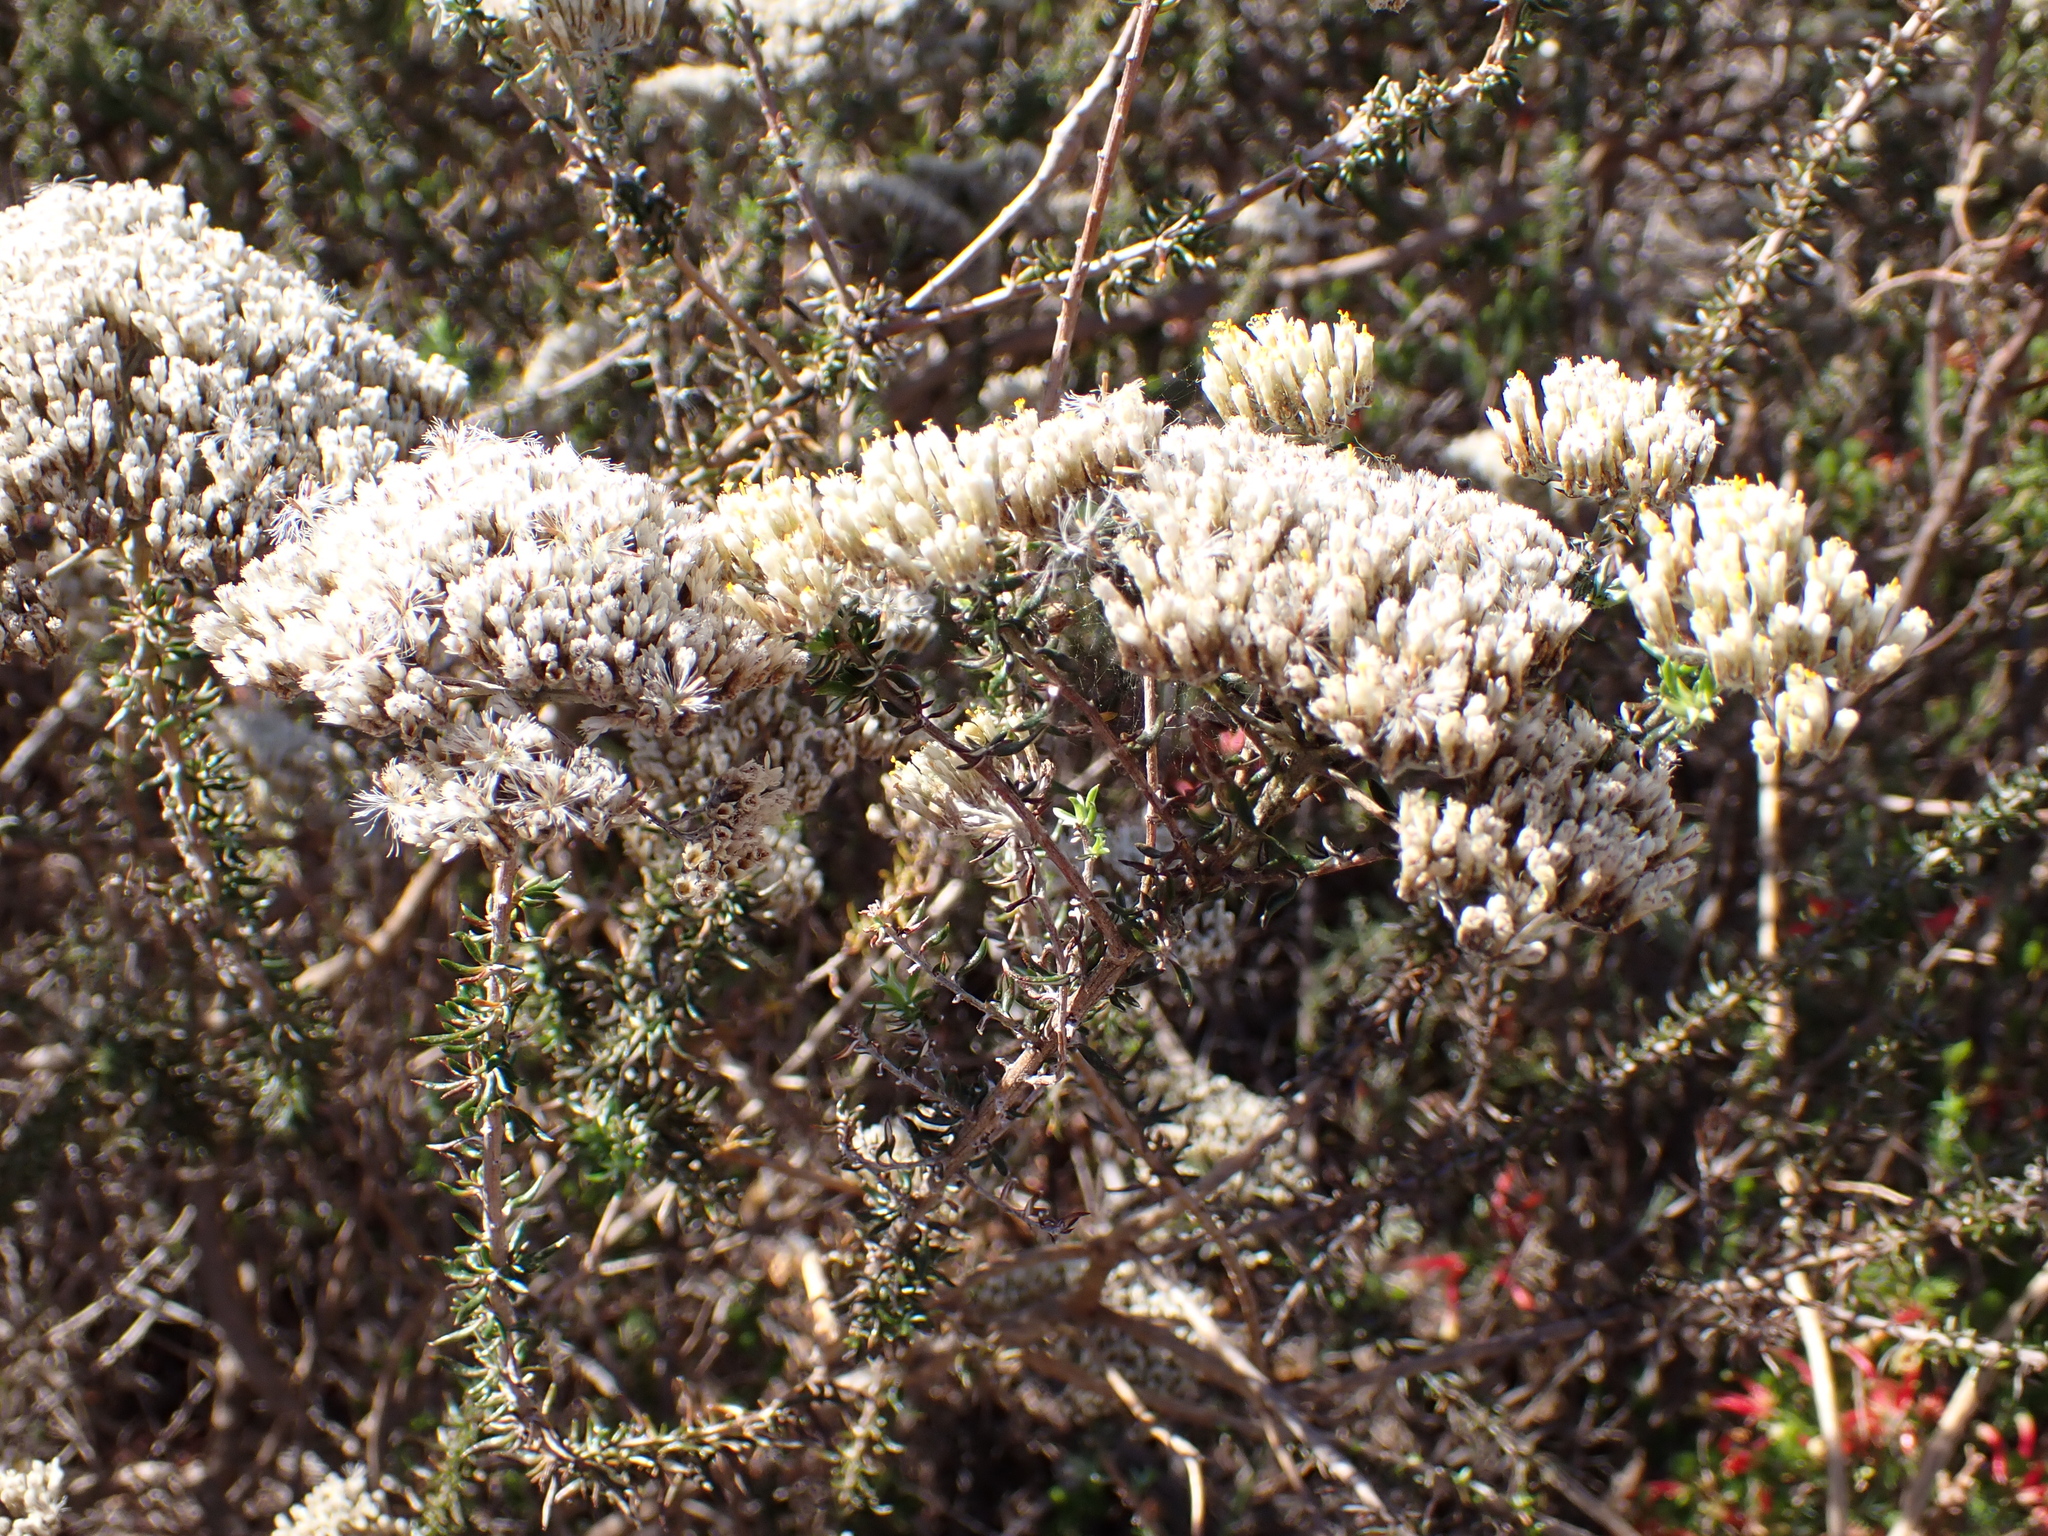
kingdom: Plantae
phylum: Tracheophyta
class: Magnoliopsida
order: Asterales
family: Asteraceae
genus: Metalasia
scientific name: Metalasia densa
